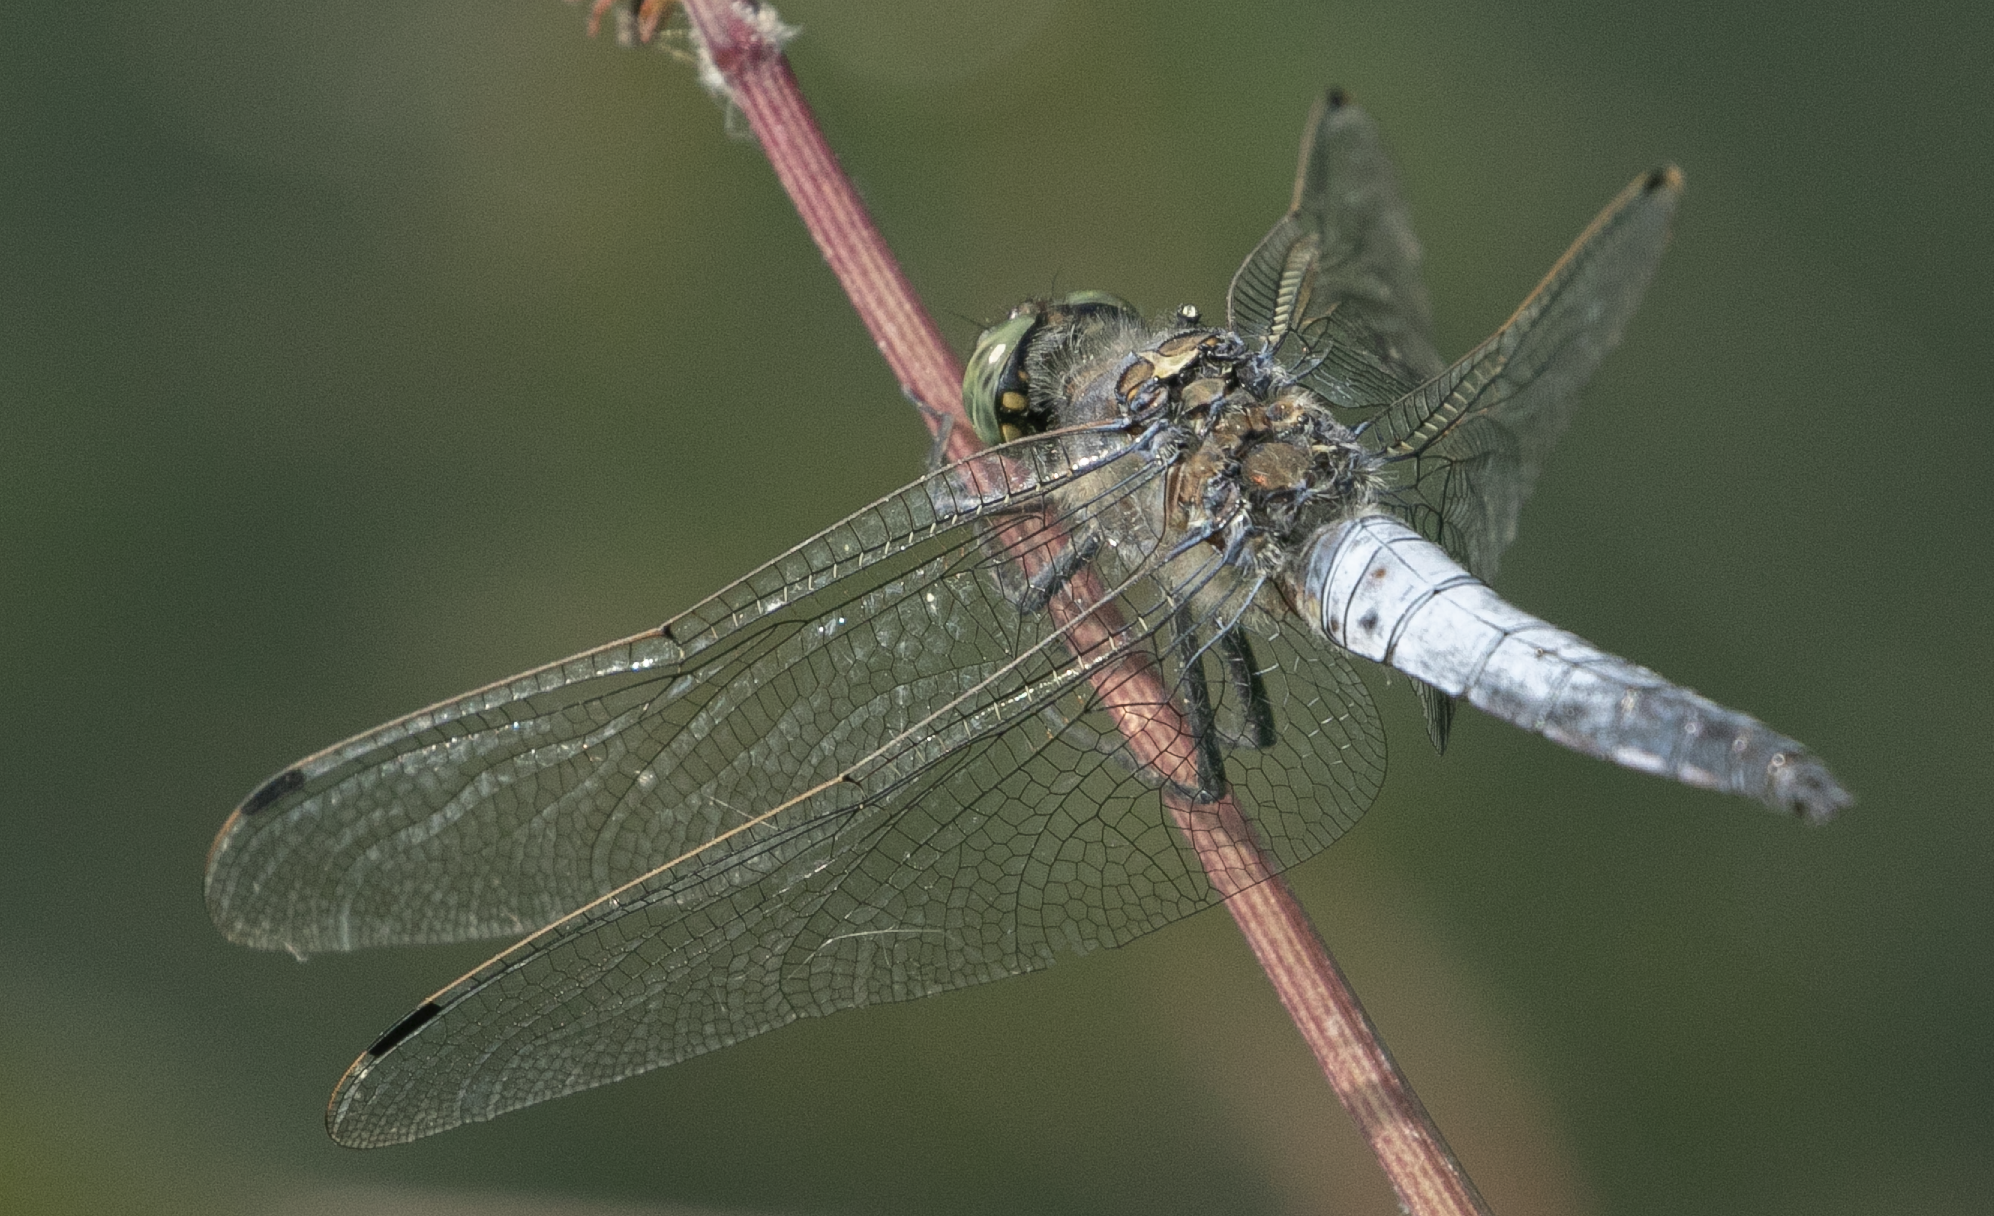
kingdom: Animalia
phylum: Arthropoda
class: Insecta
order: Odonata
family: Libellulidae
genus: Orthetrum
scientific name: Orthetrum cancellatum
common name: Black-tailed skimmer
